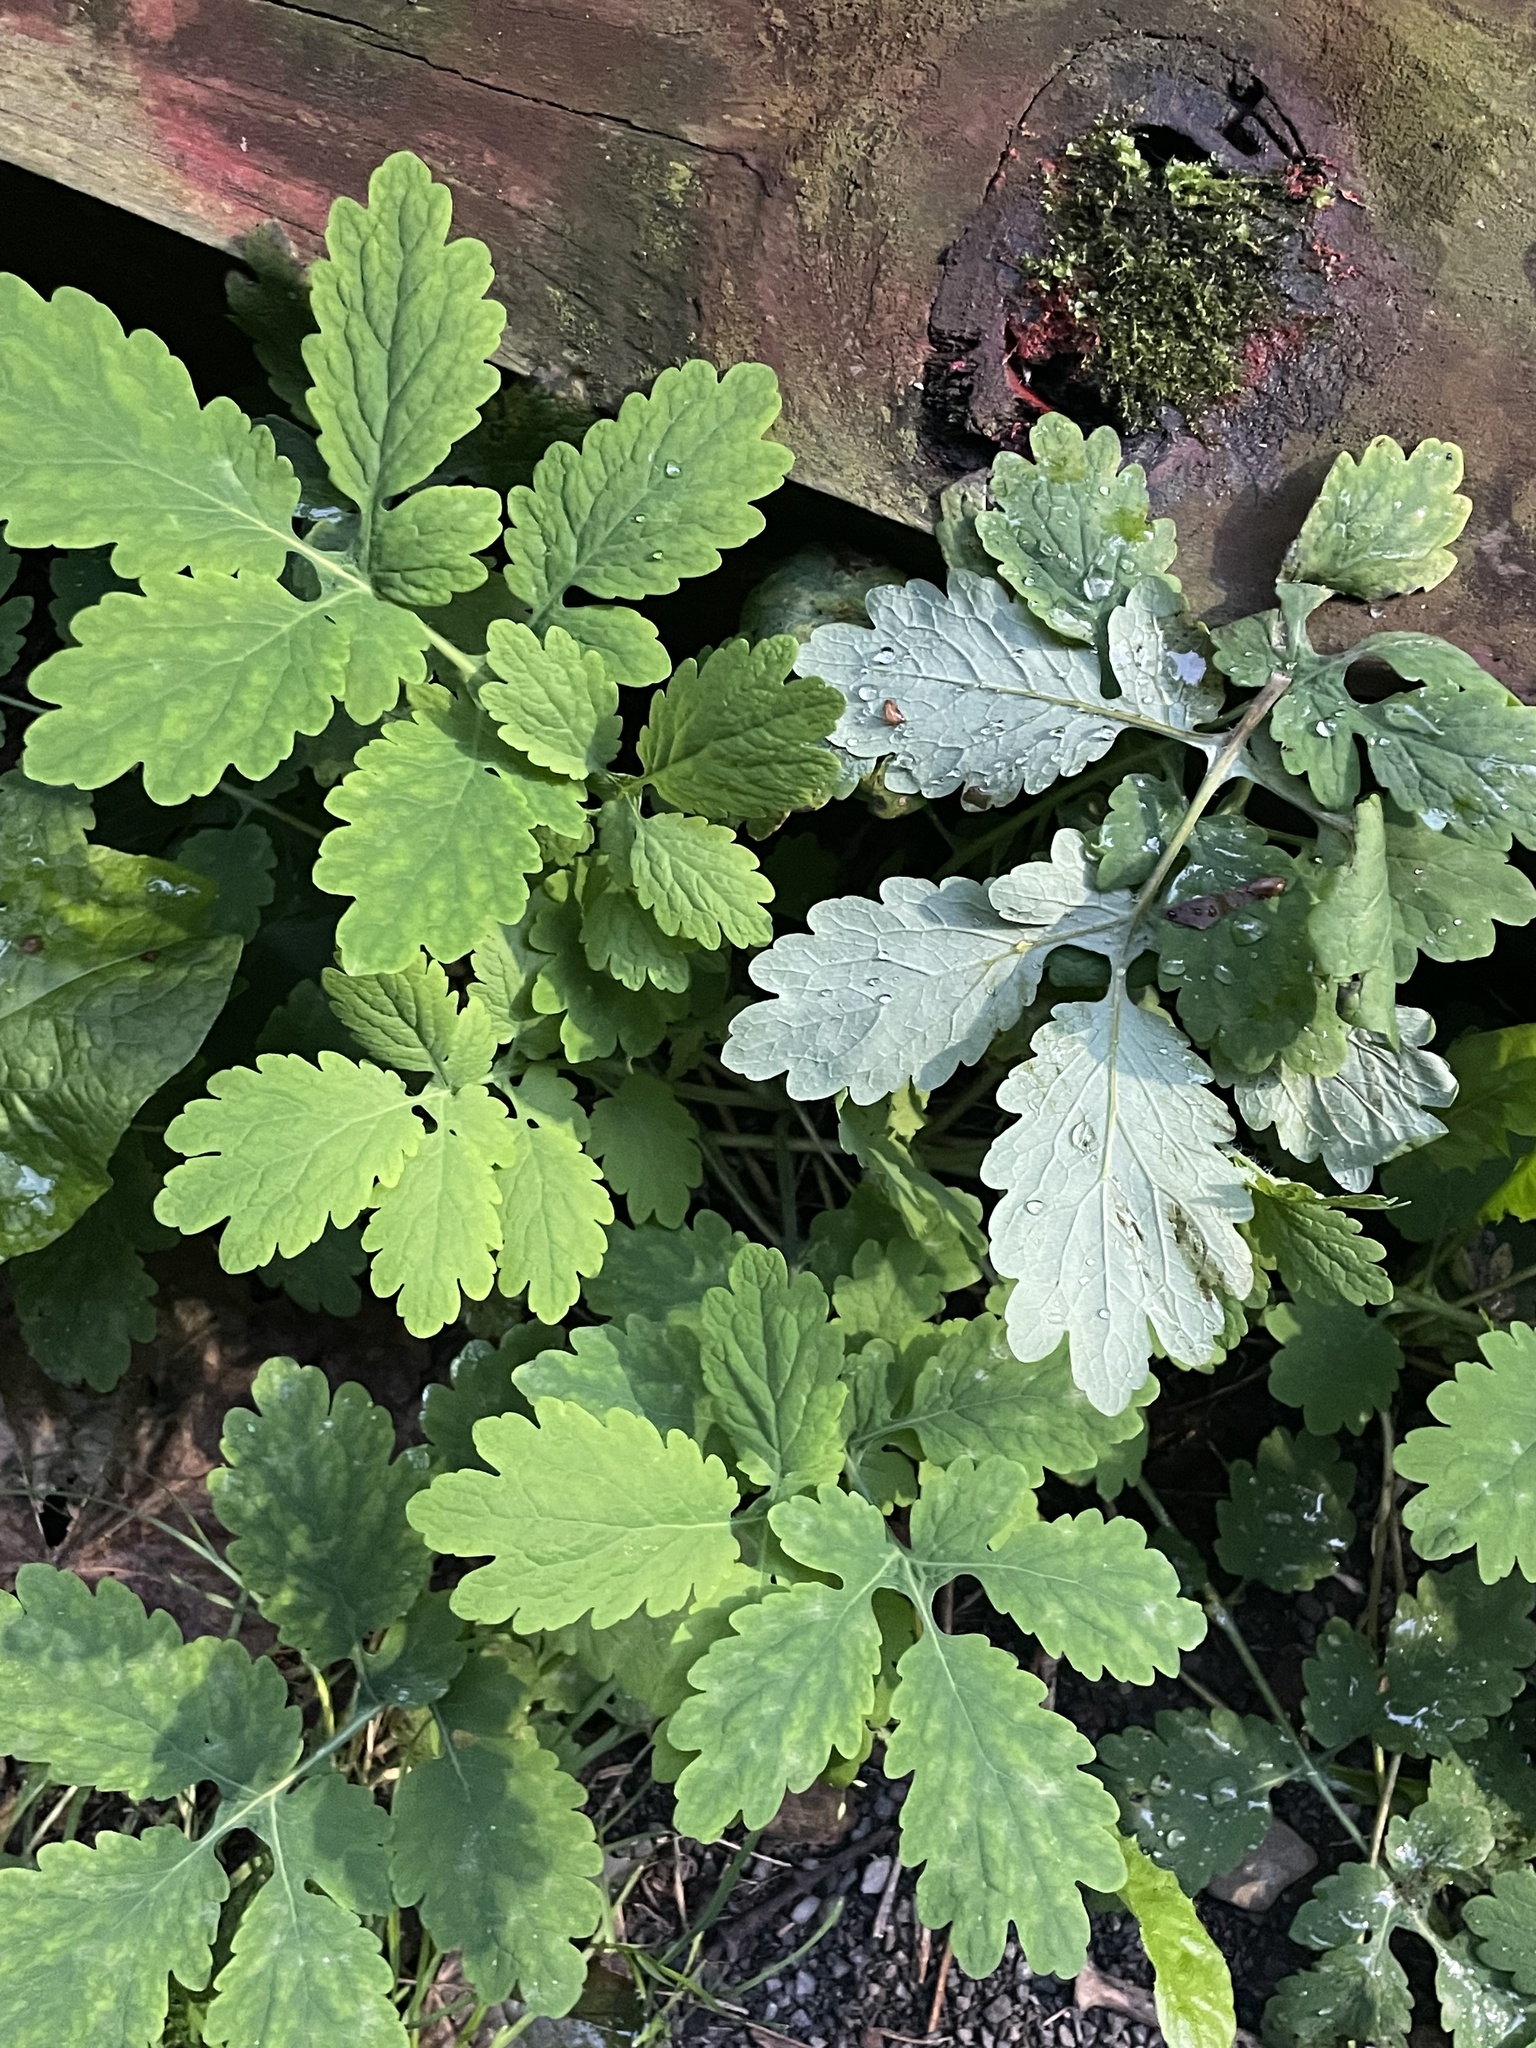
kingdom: Plantae
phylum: Tracheophyta
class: Magnoliopsida
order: Ranunculales
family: Papaveraceae
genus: Chelidonium
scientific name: Chelidonium majus
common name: Greater celandine
